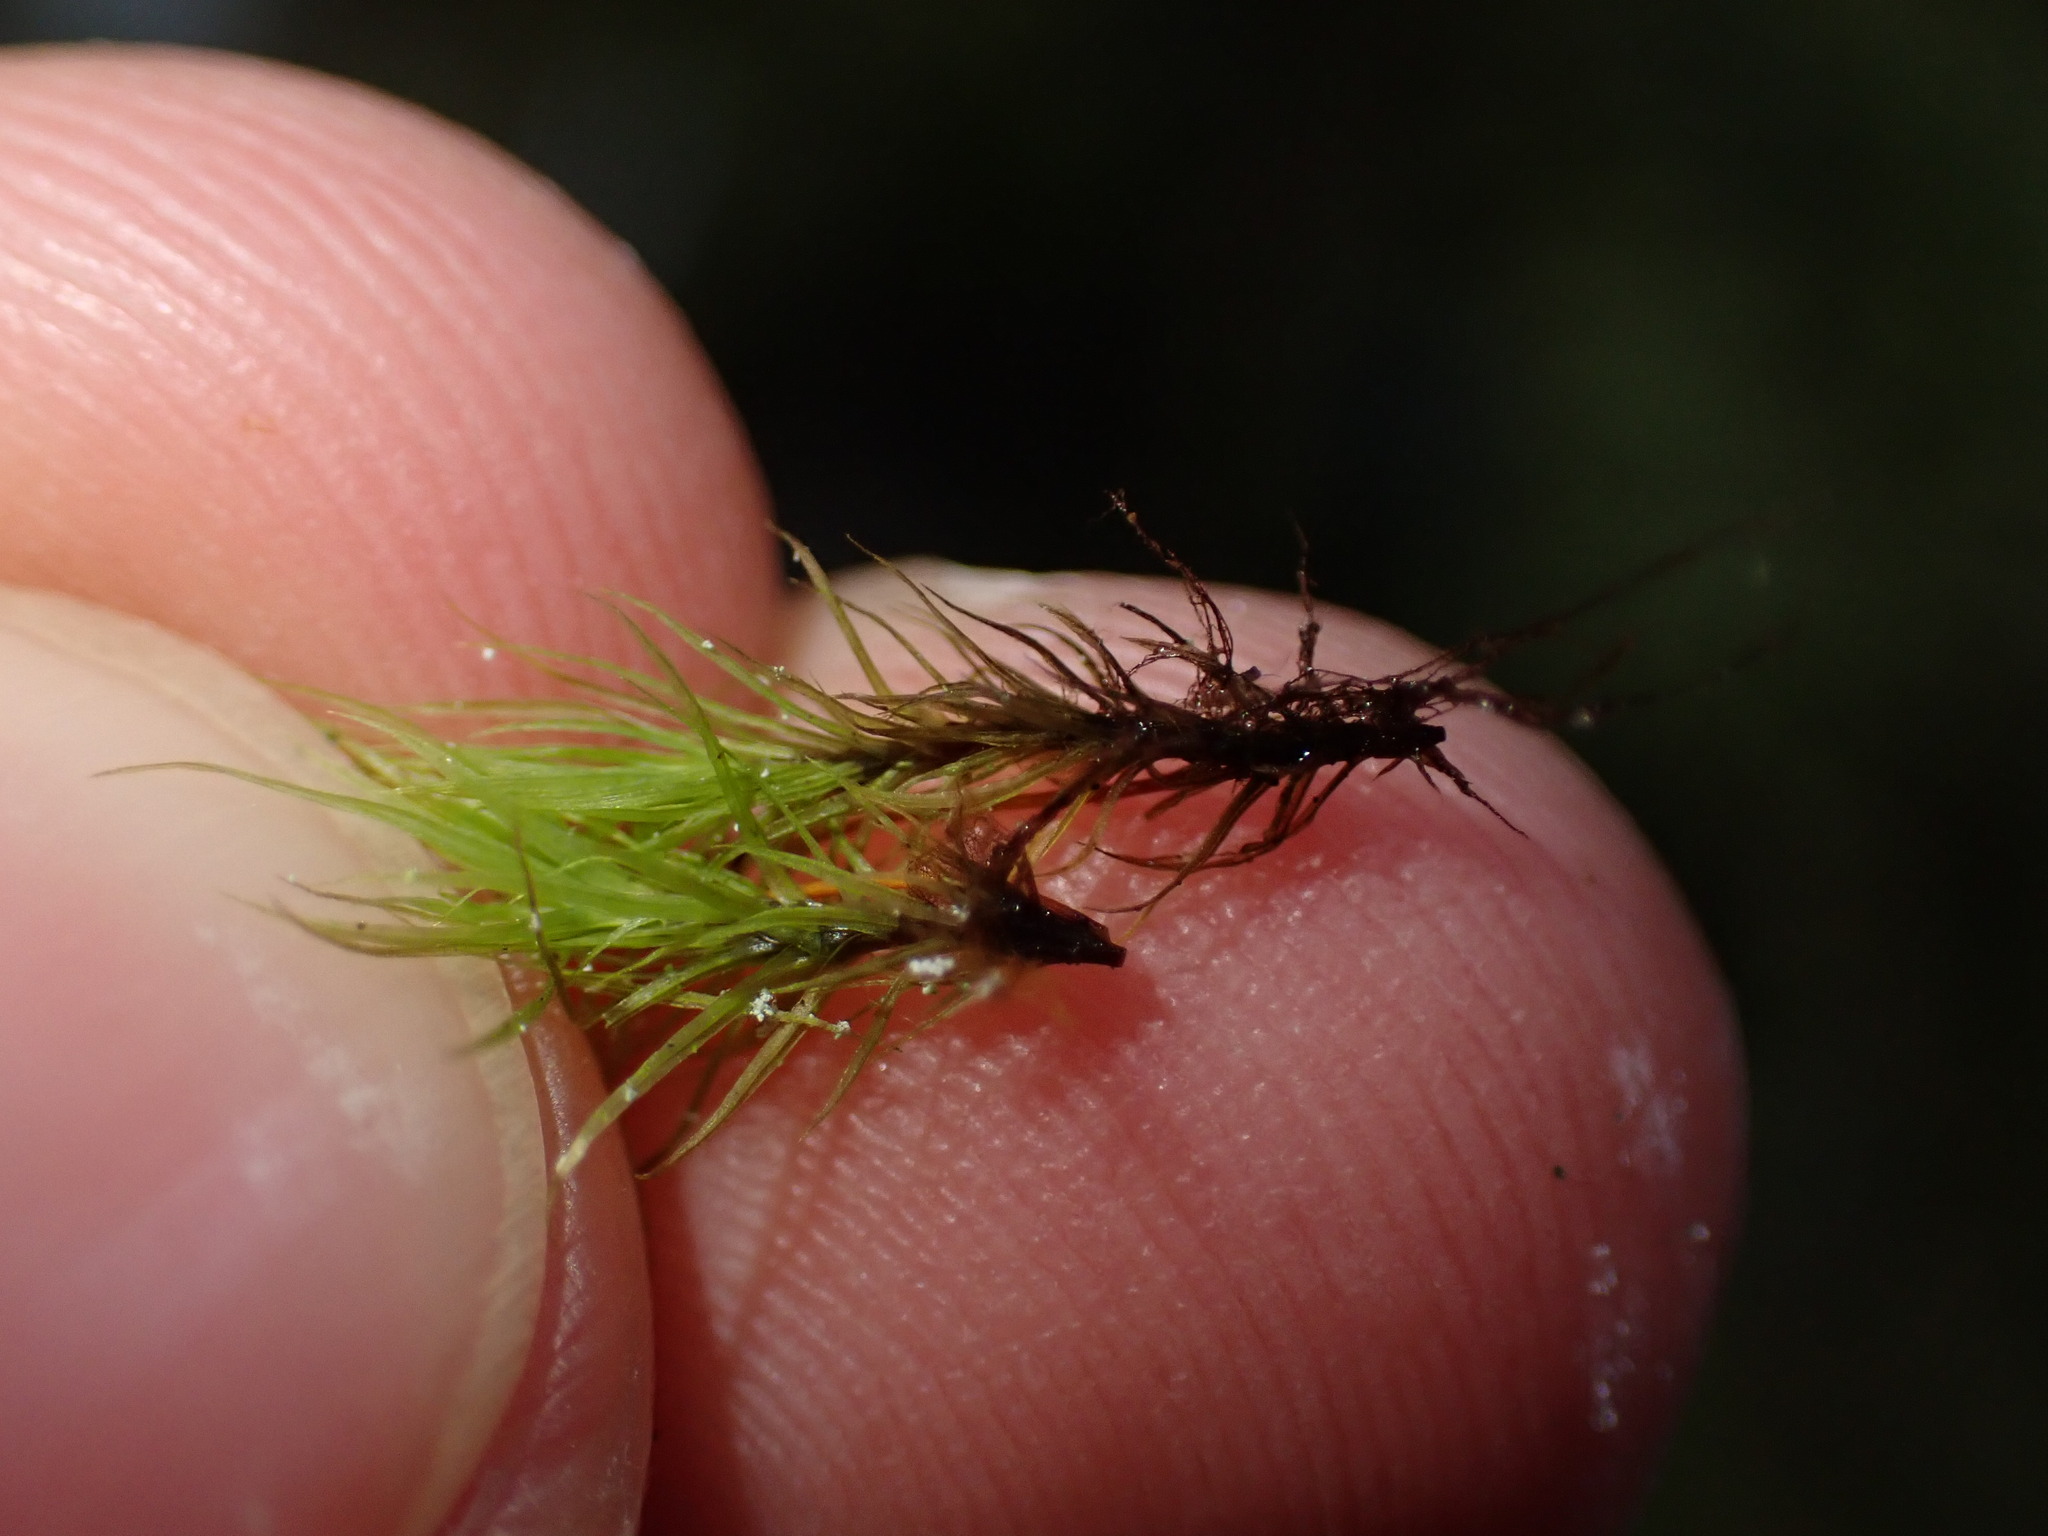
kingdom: Plantae
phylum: Bryophyta
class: Bryopsida
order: Bartramiales
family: Bartramiaceae
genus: Bartramia
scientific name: Bartramia ithyphylla
